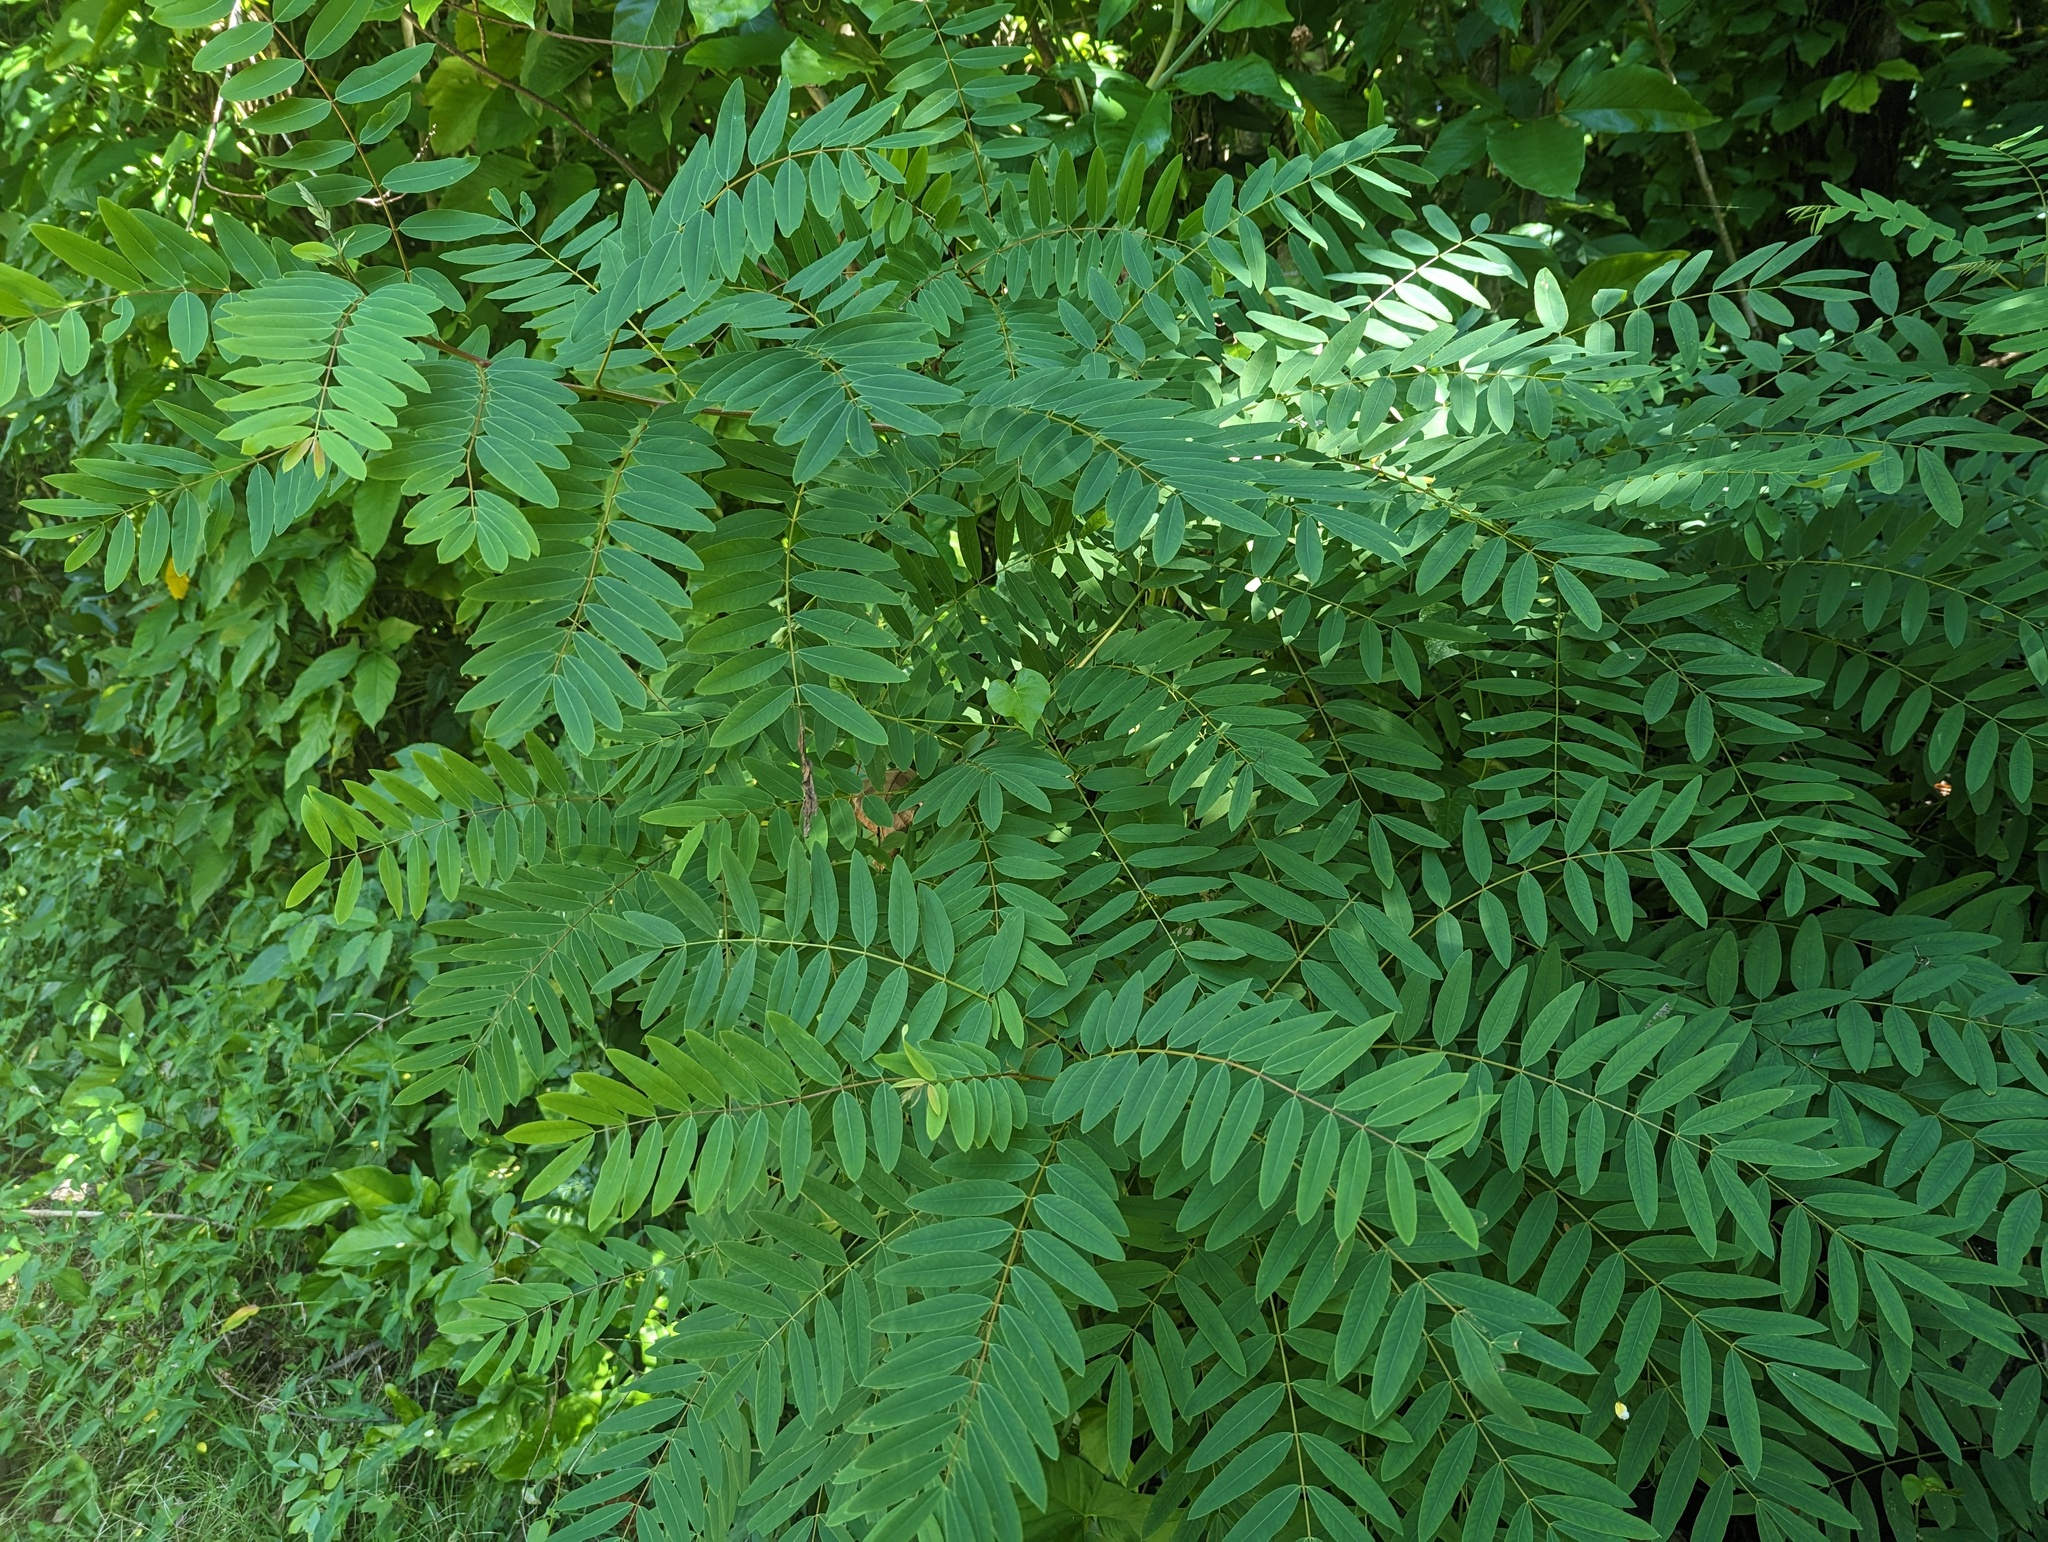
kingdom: Plantae
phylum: Tracheophyta
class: Magnoliopsida
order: Fabales
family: Fabaceae
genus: Senna
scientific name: Senna siamea
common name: Siamese cassia
